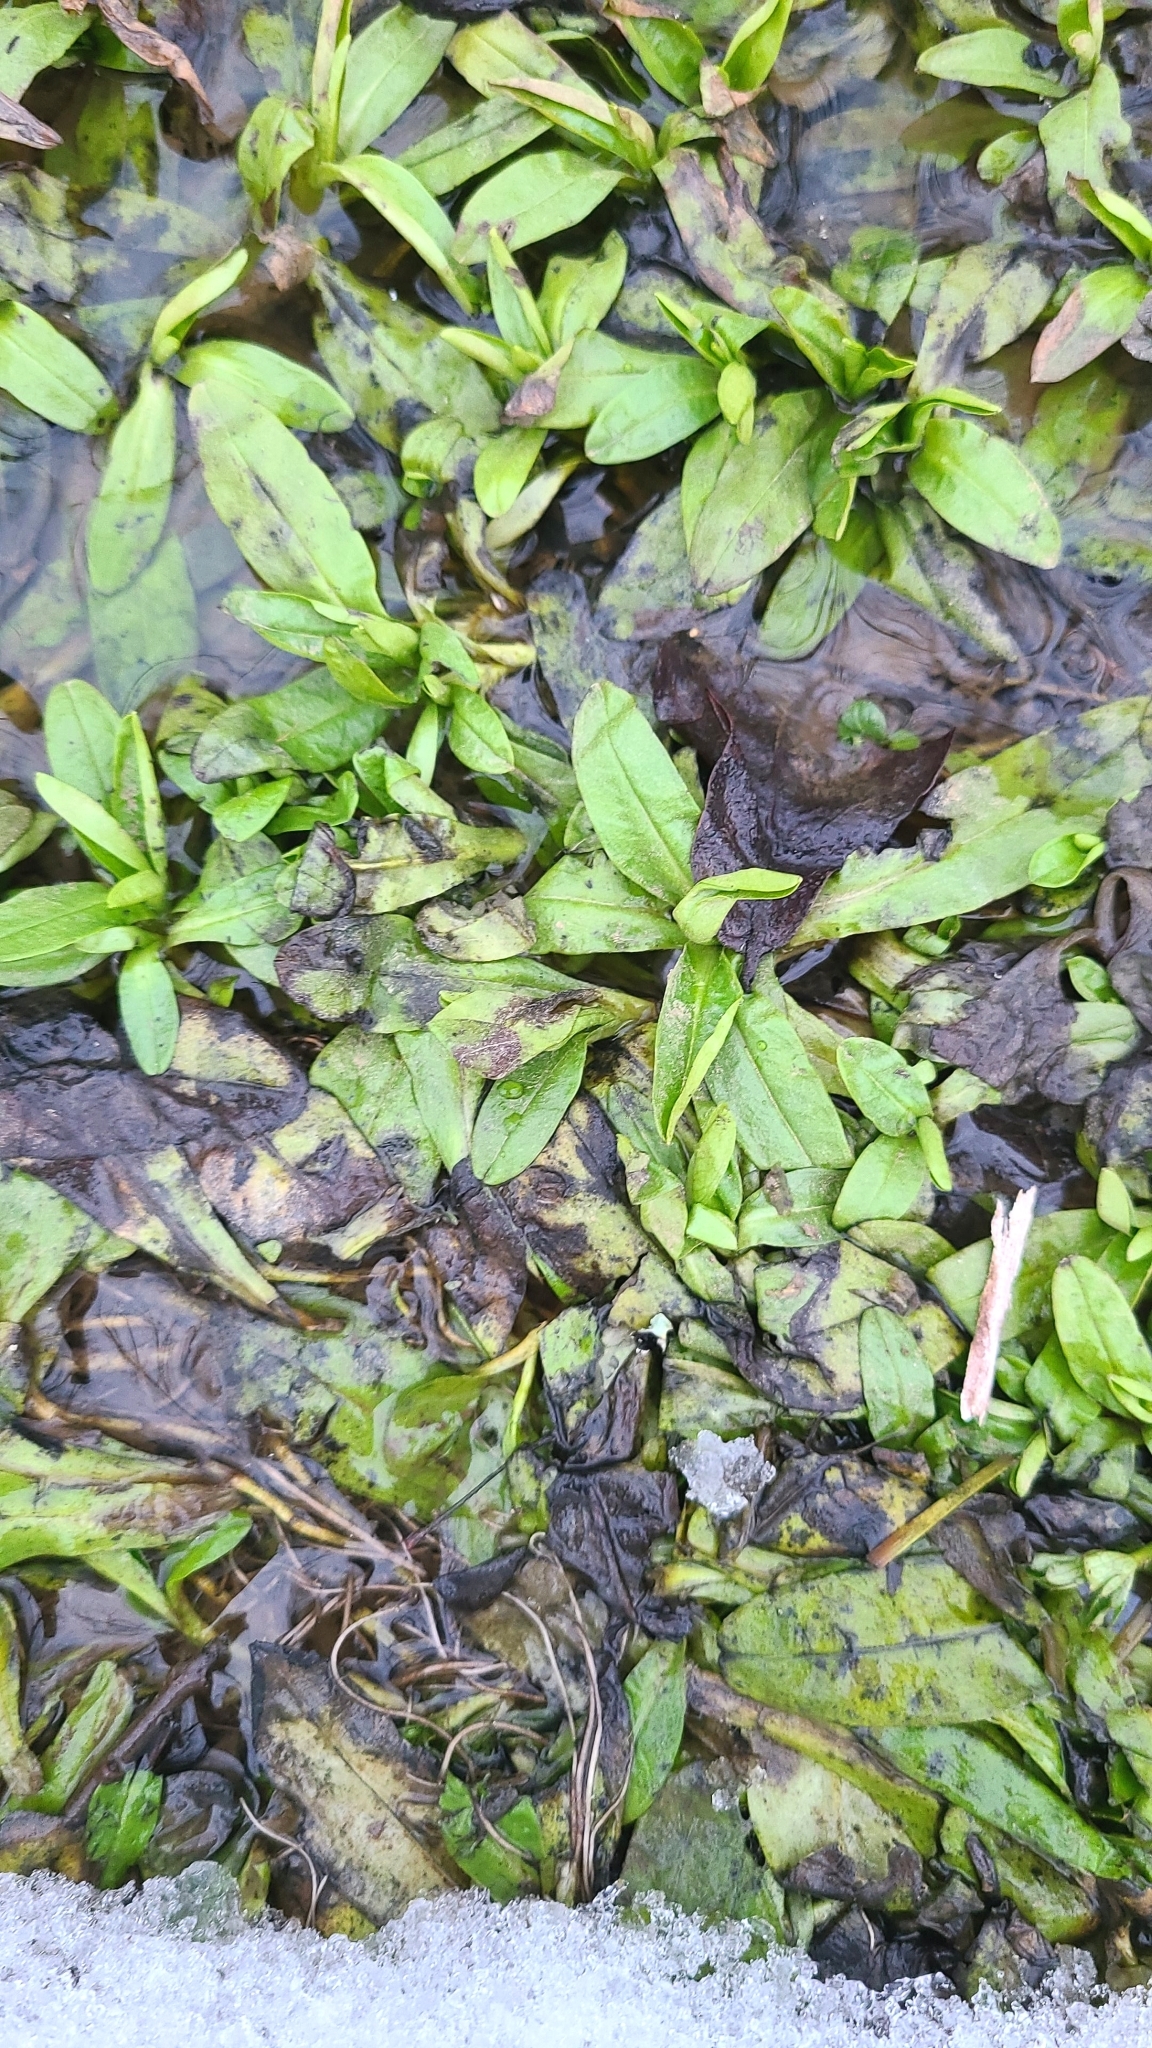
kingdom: Plantae
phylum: Tracheophyta
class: Magnoliopsida
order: Boraginales
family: Boraginaceae
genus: Myosotis
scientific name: Myosotis scorpioides
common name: Water forget-me-not
